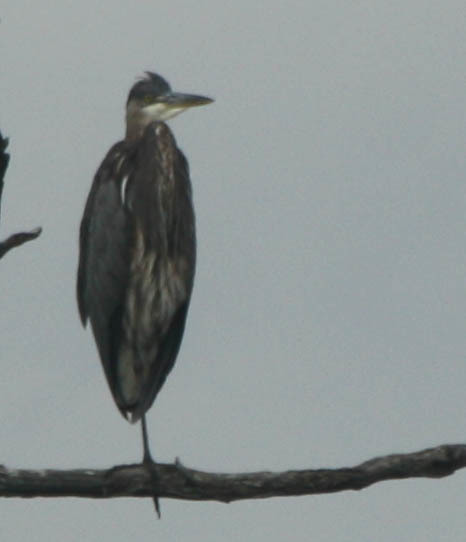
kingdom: Animalia
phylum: Chordata
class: Aves
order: Pelecaniformes
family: Ardeidae
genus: Ardea
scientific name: Ardea herodias
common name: Great blue heron
